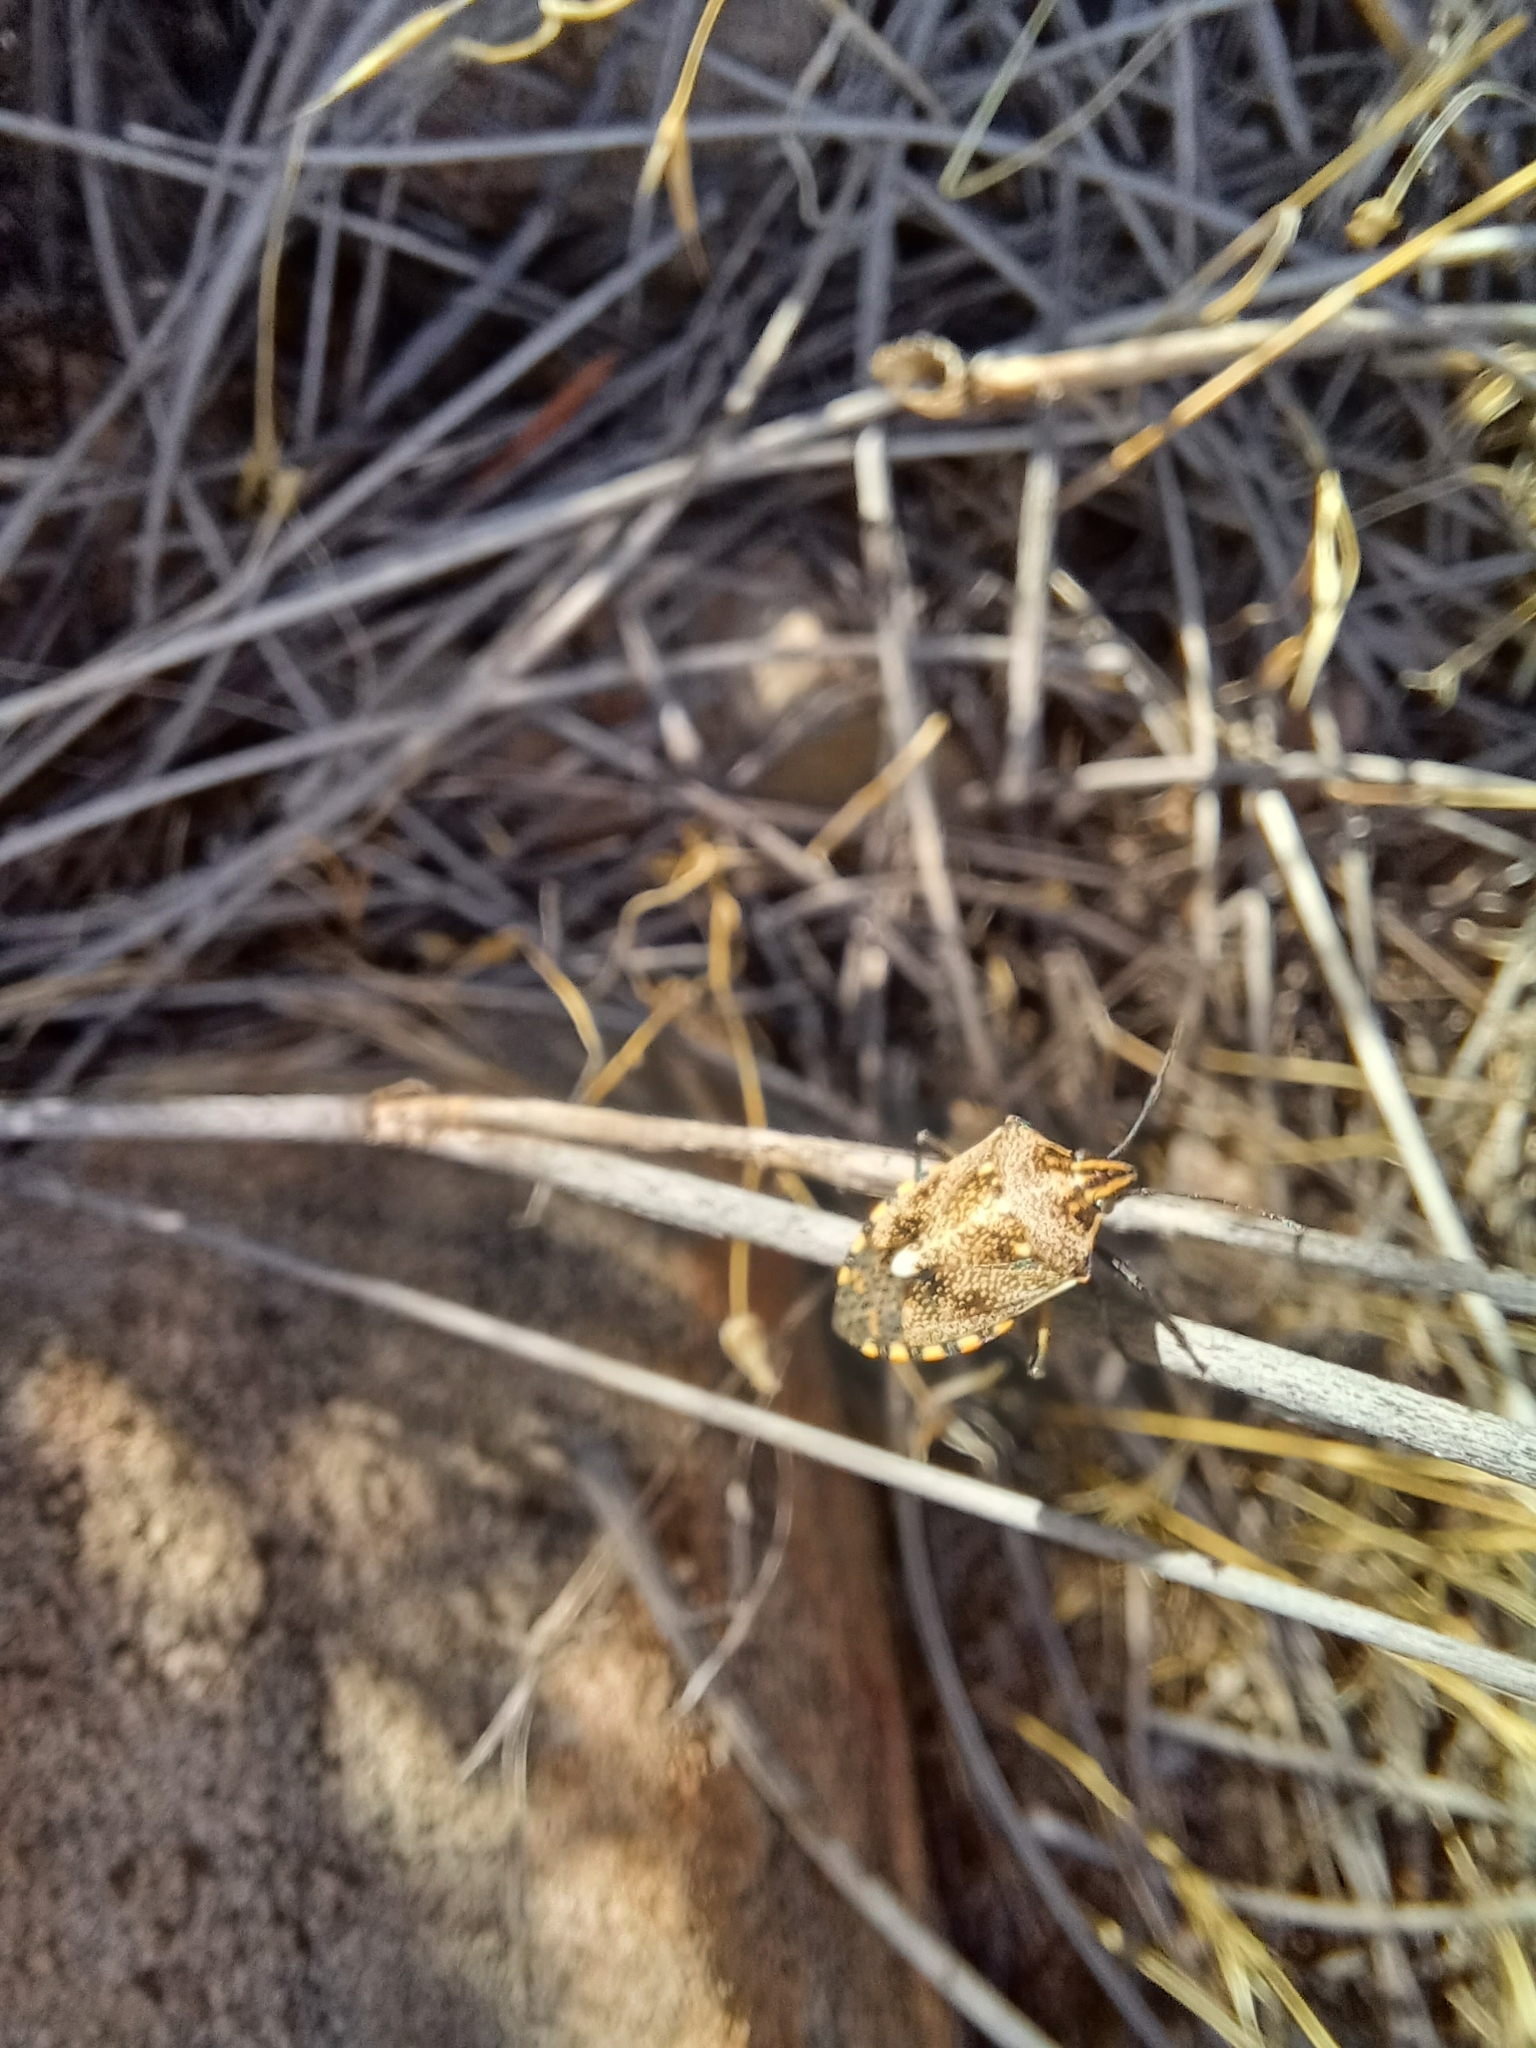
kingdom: Animalia
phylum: Arthropoda
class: Insecta
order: Hemiptera
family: Pentatomidae
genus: Andocides
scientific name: Andocides vittaticeps
